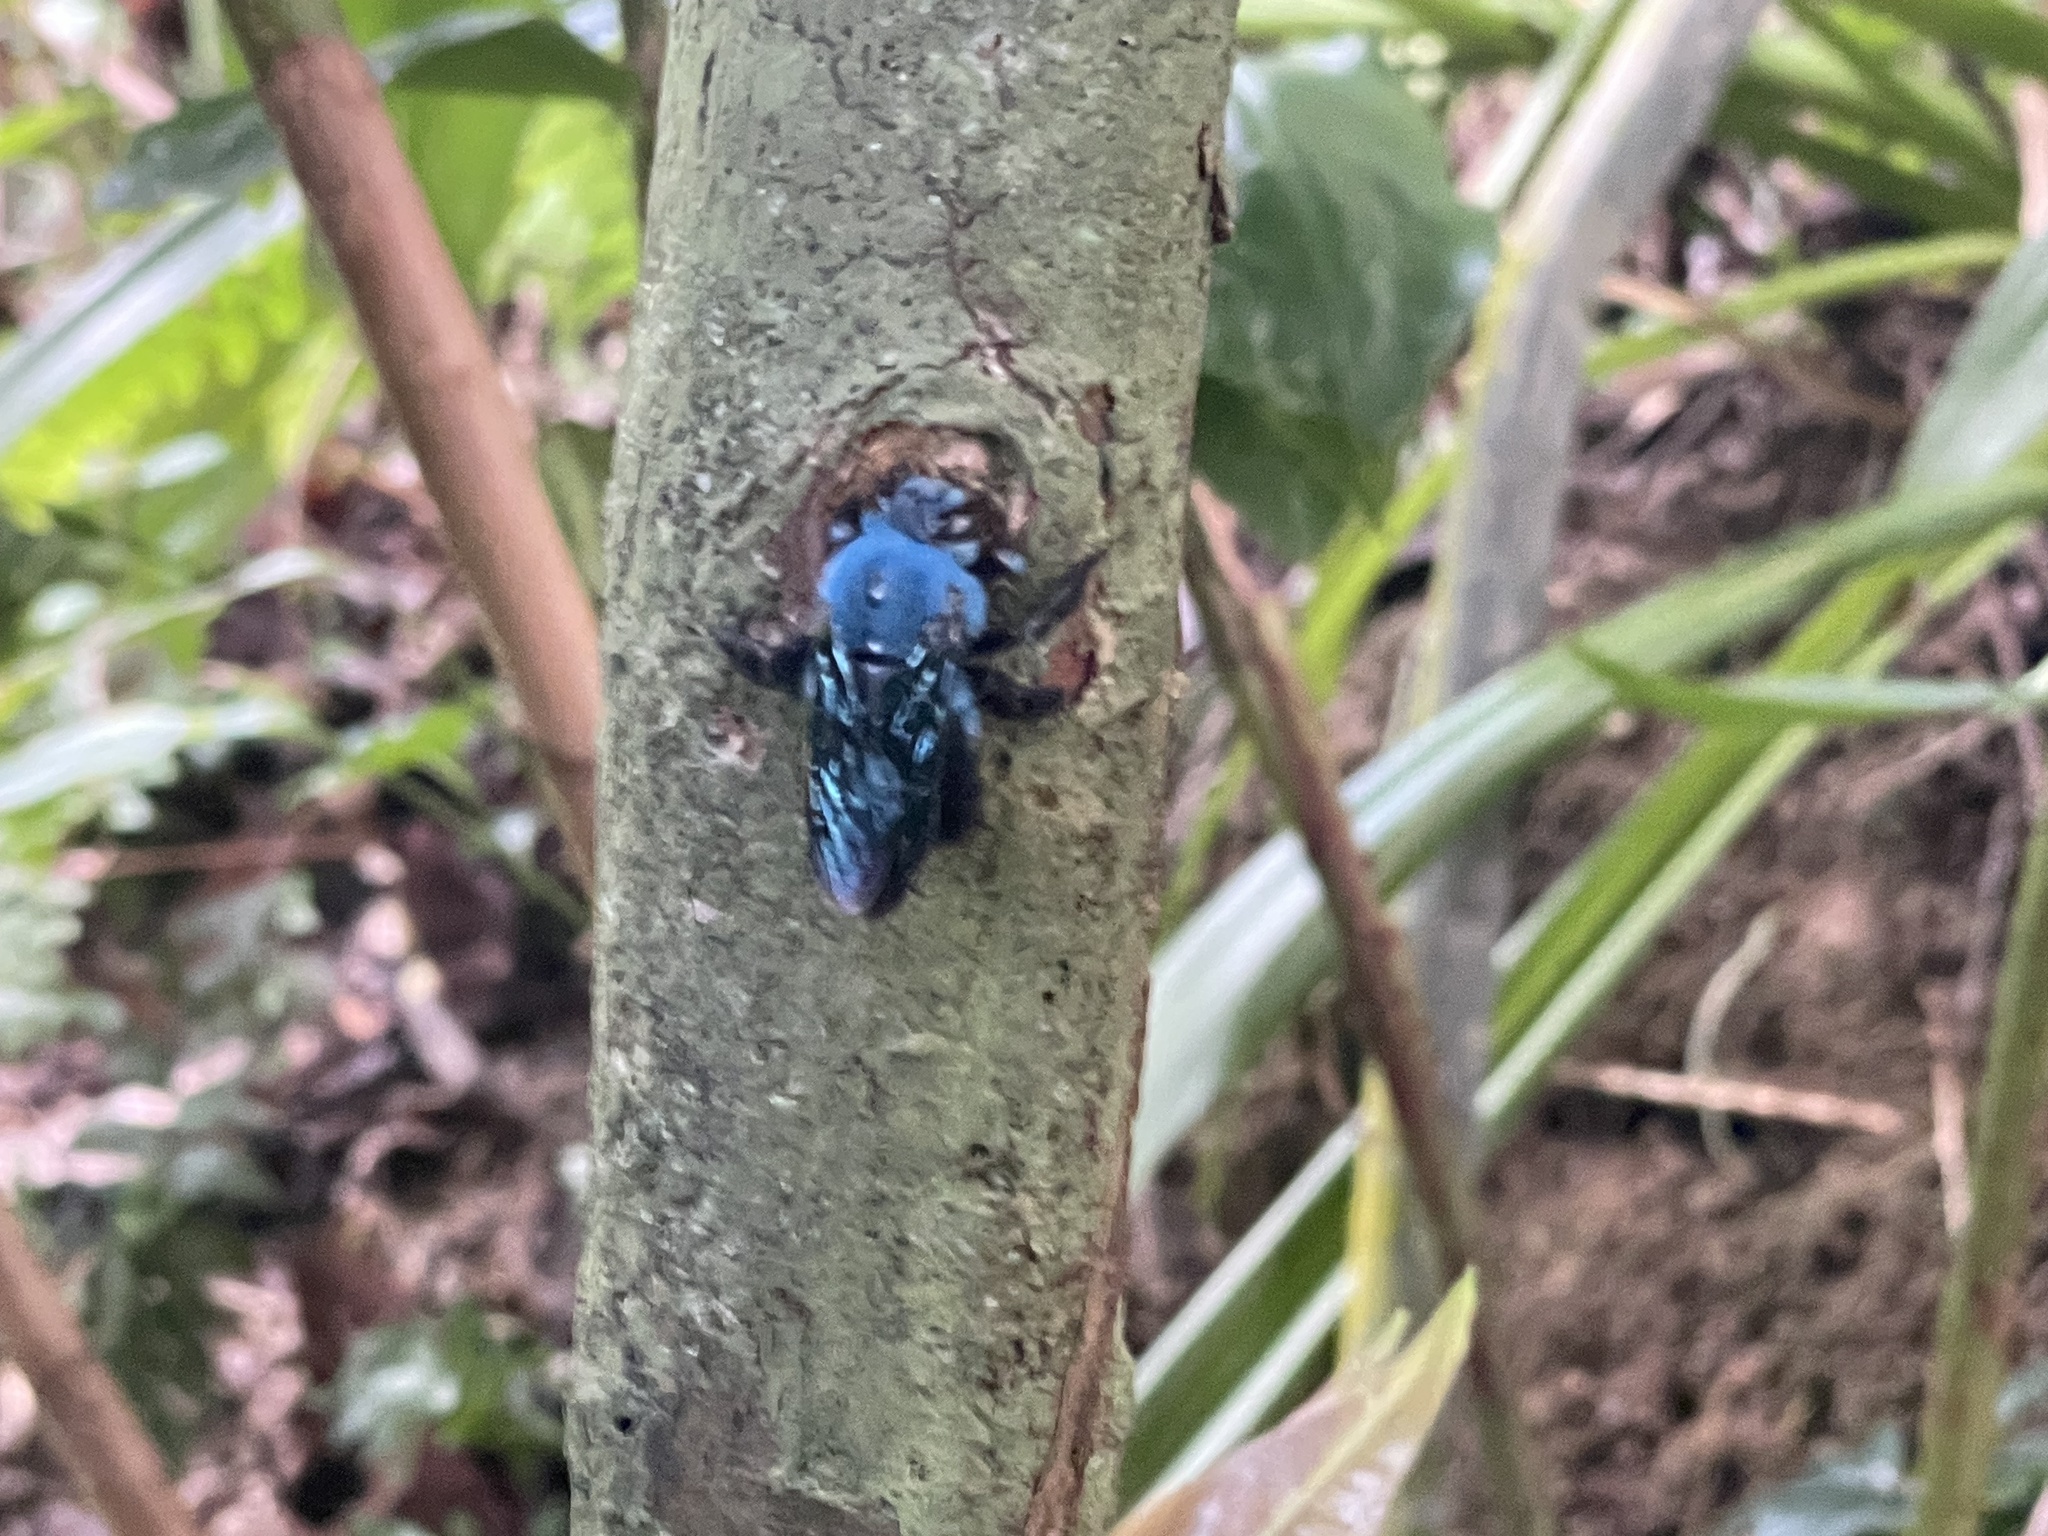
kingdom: Animalia
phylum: Arthropoda
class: Insecta
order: Hymenoptera
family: Apidae
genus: Xylocopa
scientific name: Xylocopa caerulea
